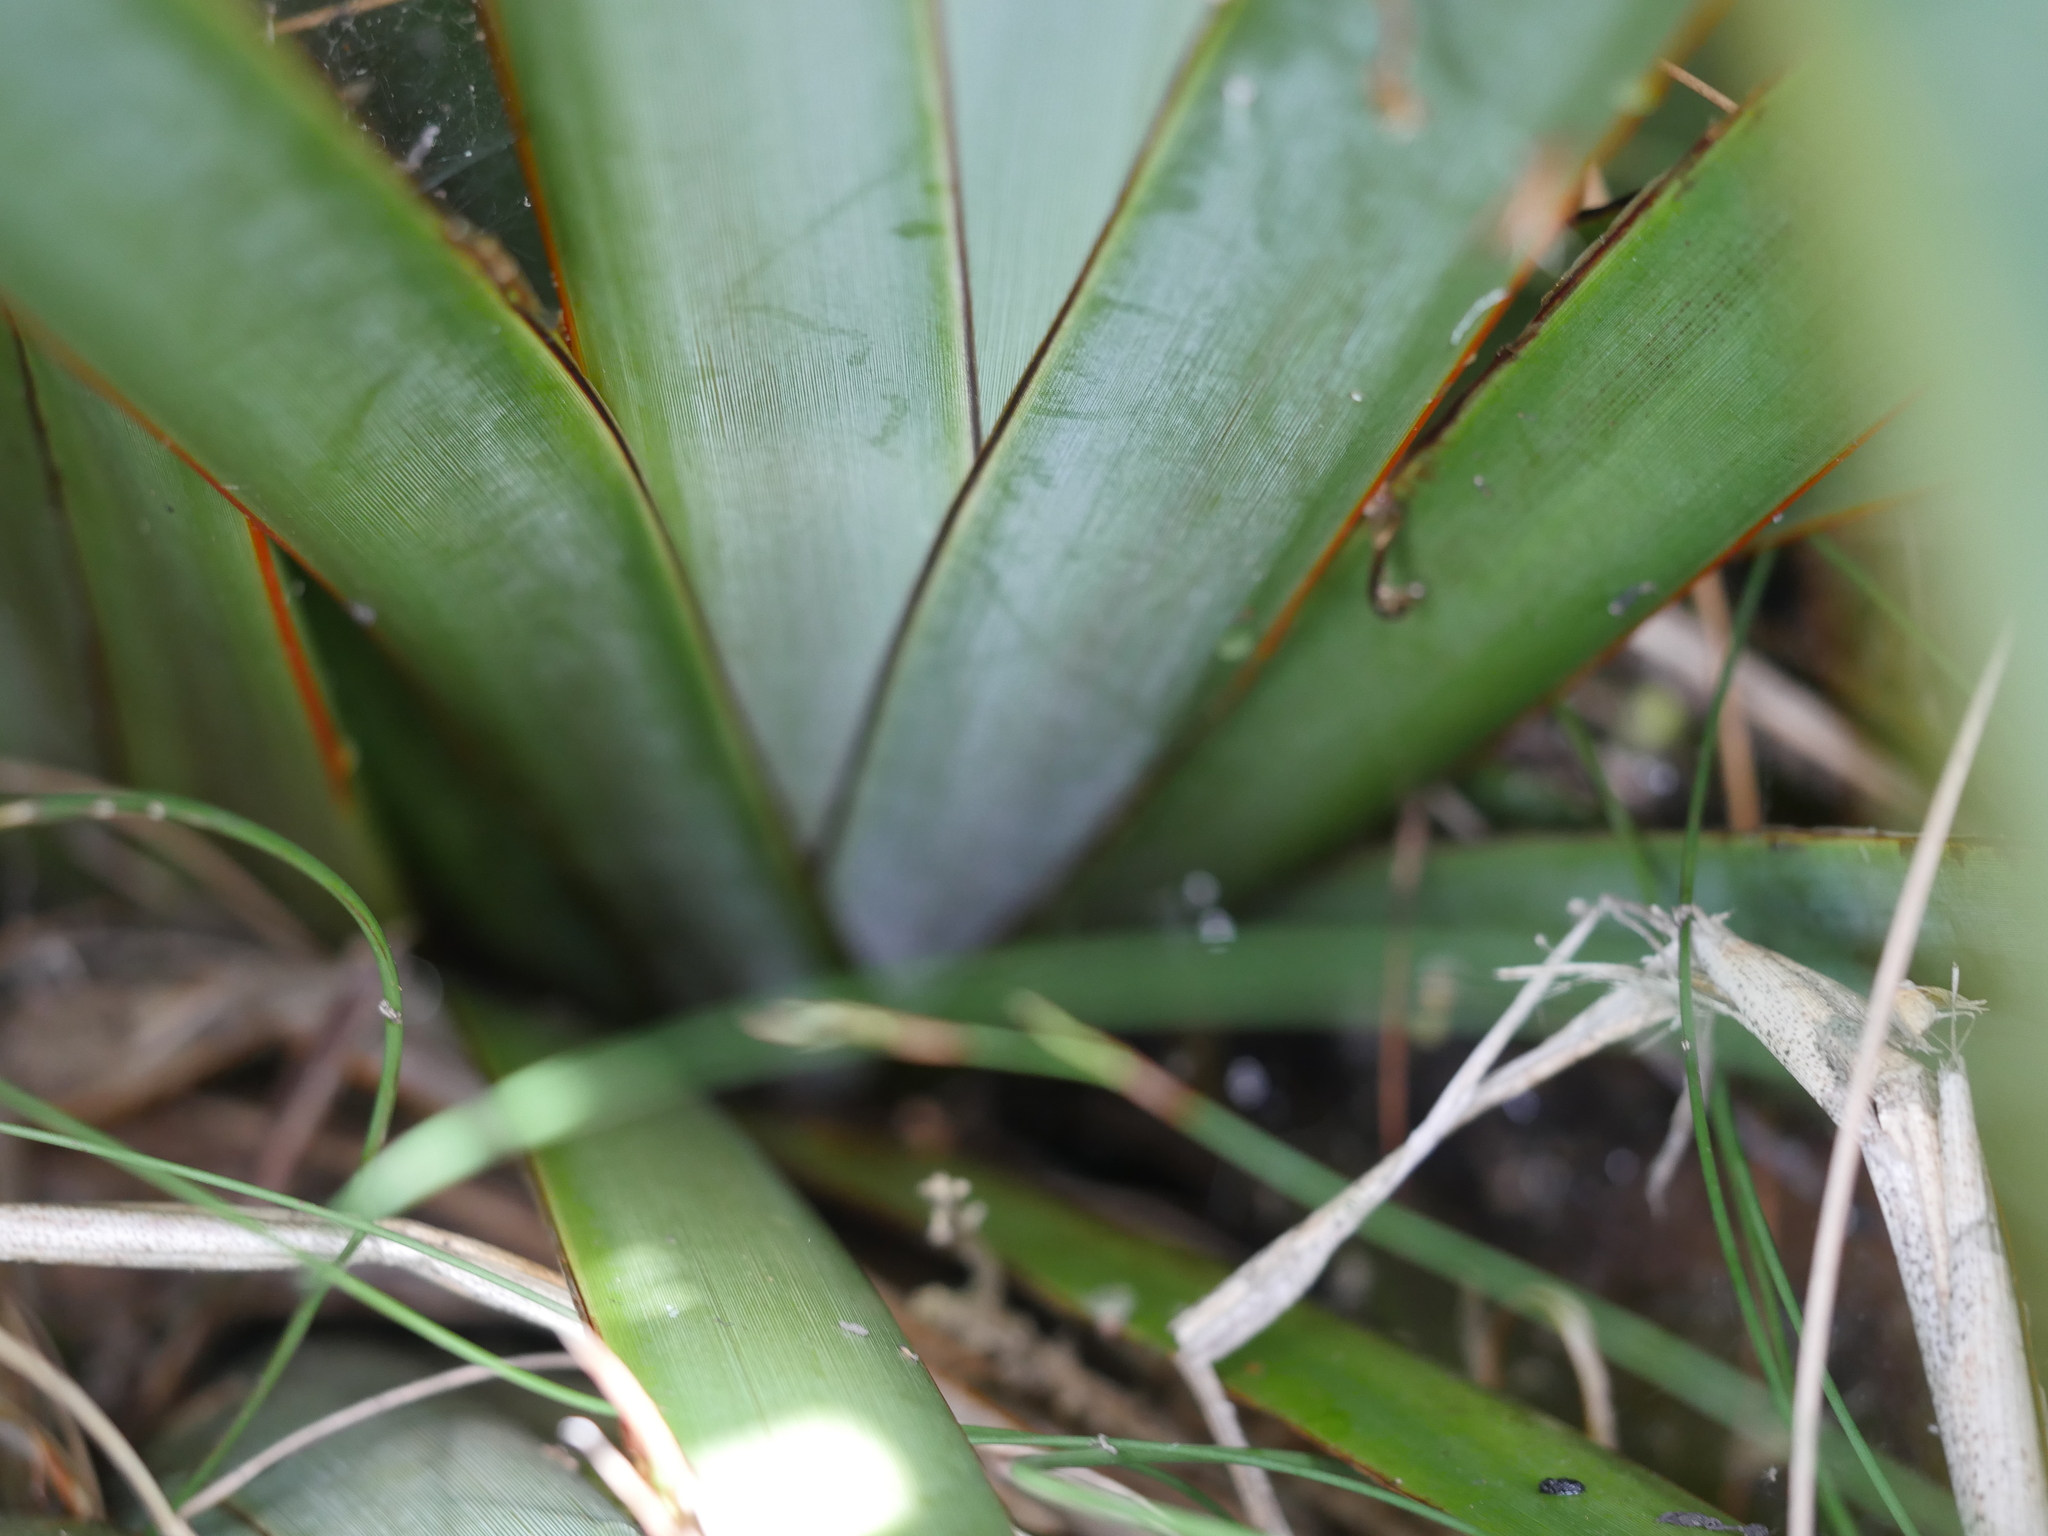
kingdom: Plantae
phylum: Tracheophyta
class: Liliopsida
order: Asparagales
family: Asphodelaceae
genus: Phormium
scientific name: Phormium tenax
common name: New zealand flax
